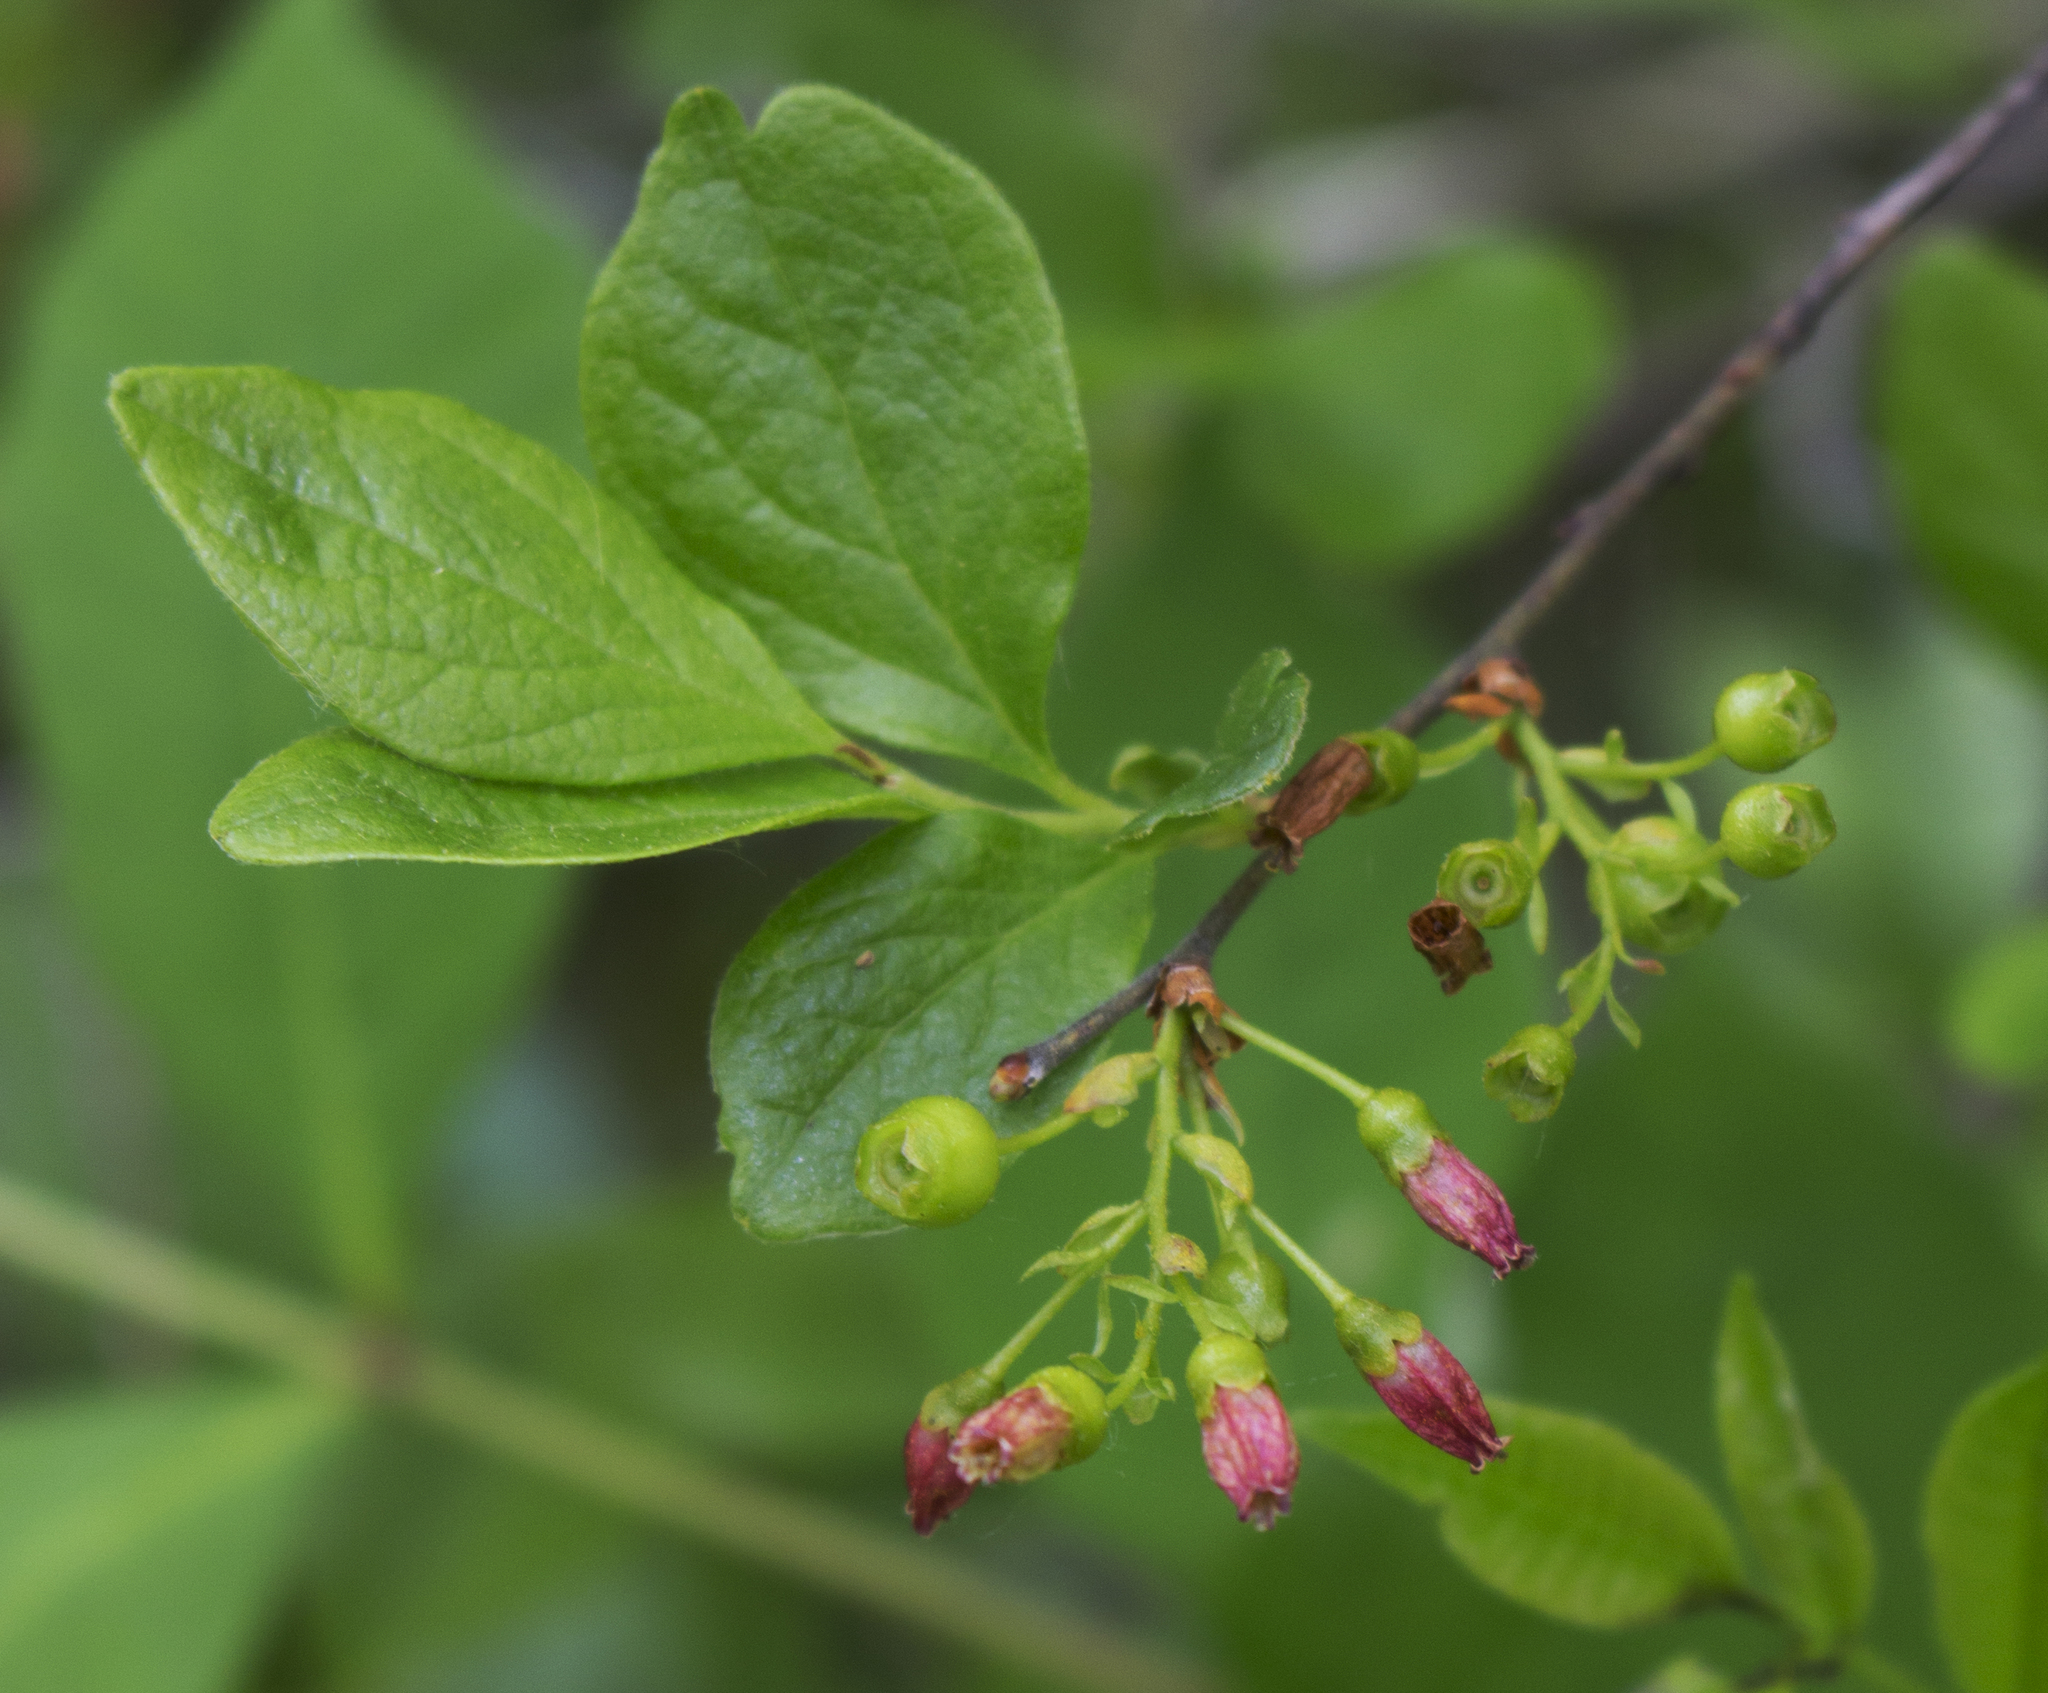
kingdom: Plantae
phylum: Tracheophyta
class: Magnoliopsida
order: Ericales
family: Ericaceae
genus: Gaylussacia
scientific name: Gaylussacia baccata
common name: Black huckleberry
